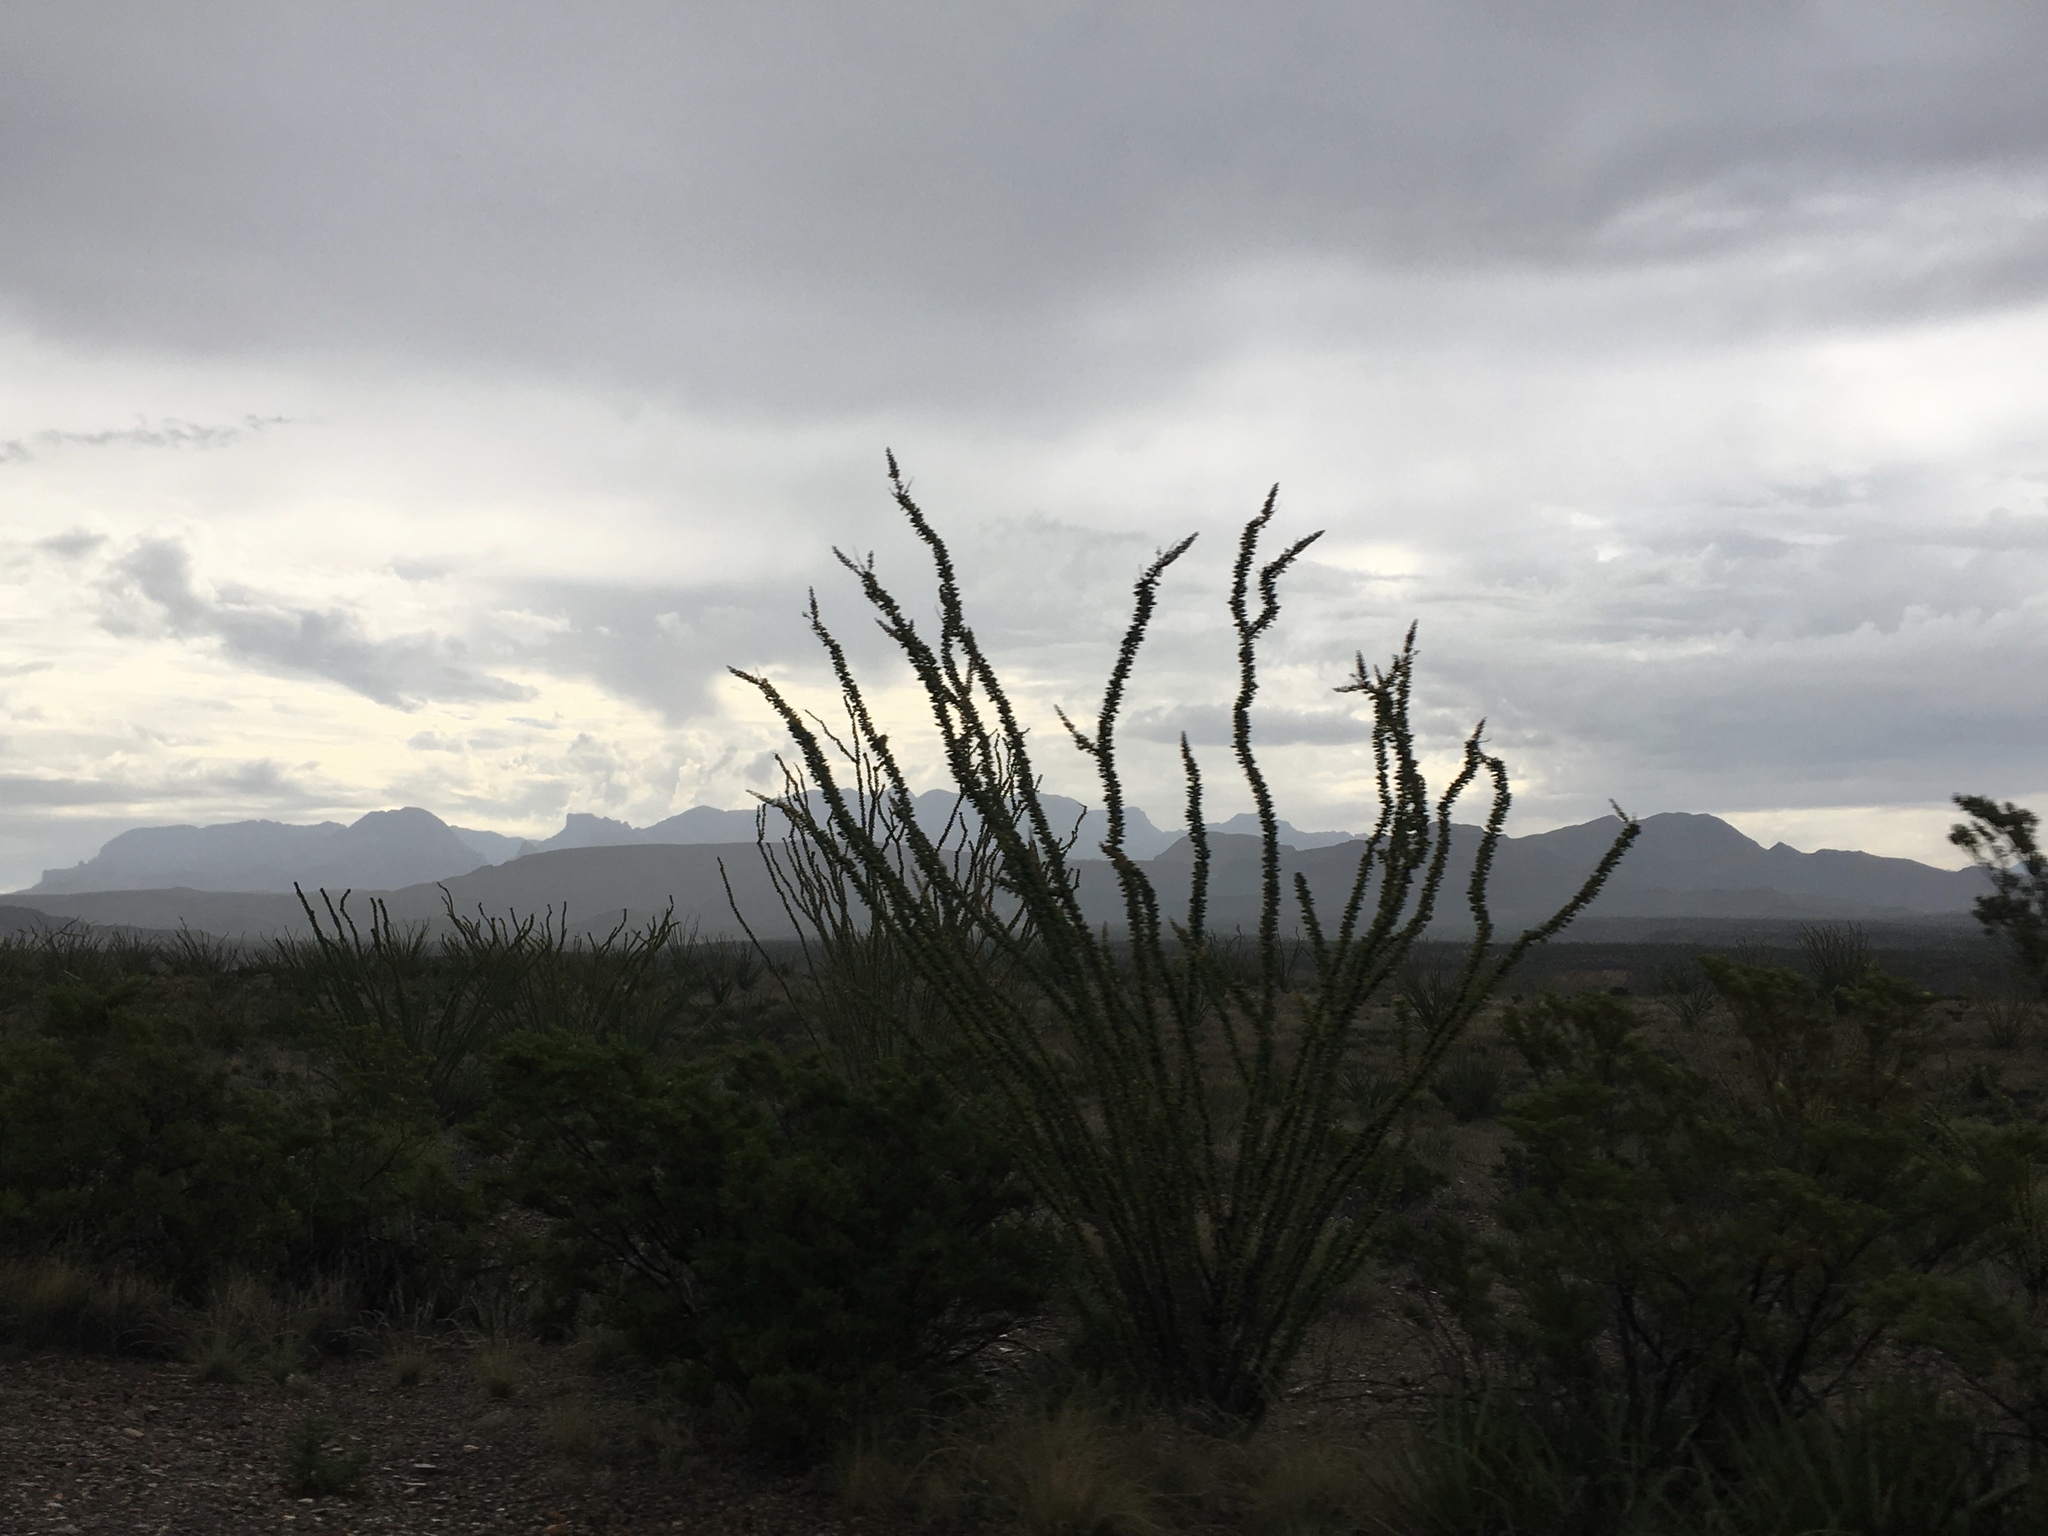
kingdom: Plantae
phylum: Tracheophyta
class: Magnoliopsida
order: Ericales
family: Fouquieriaceae
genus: Fouquieria
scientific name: Fouquieria splendens
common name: Vine-cactus
